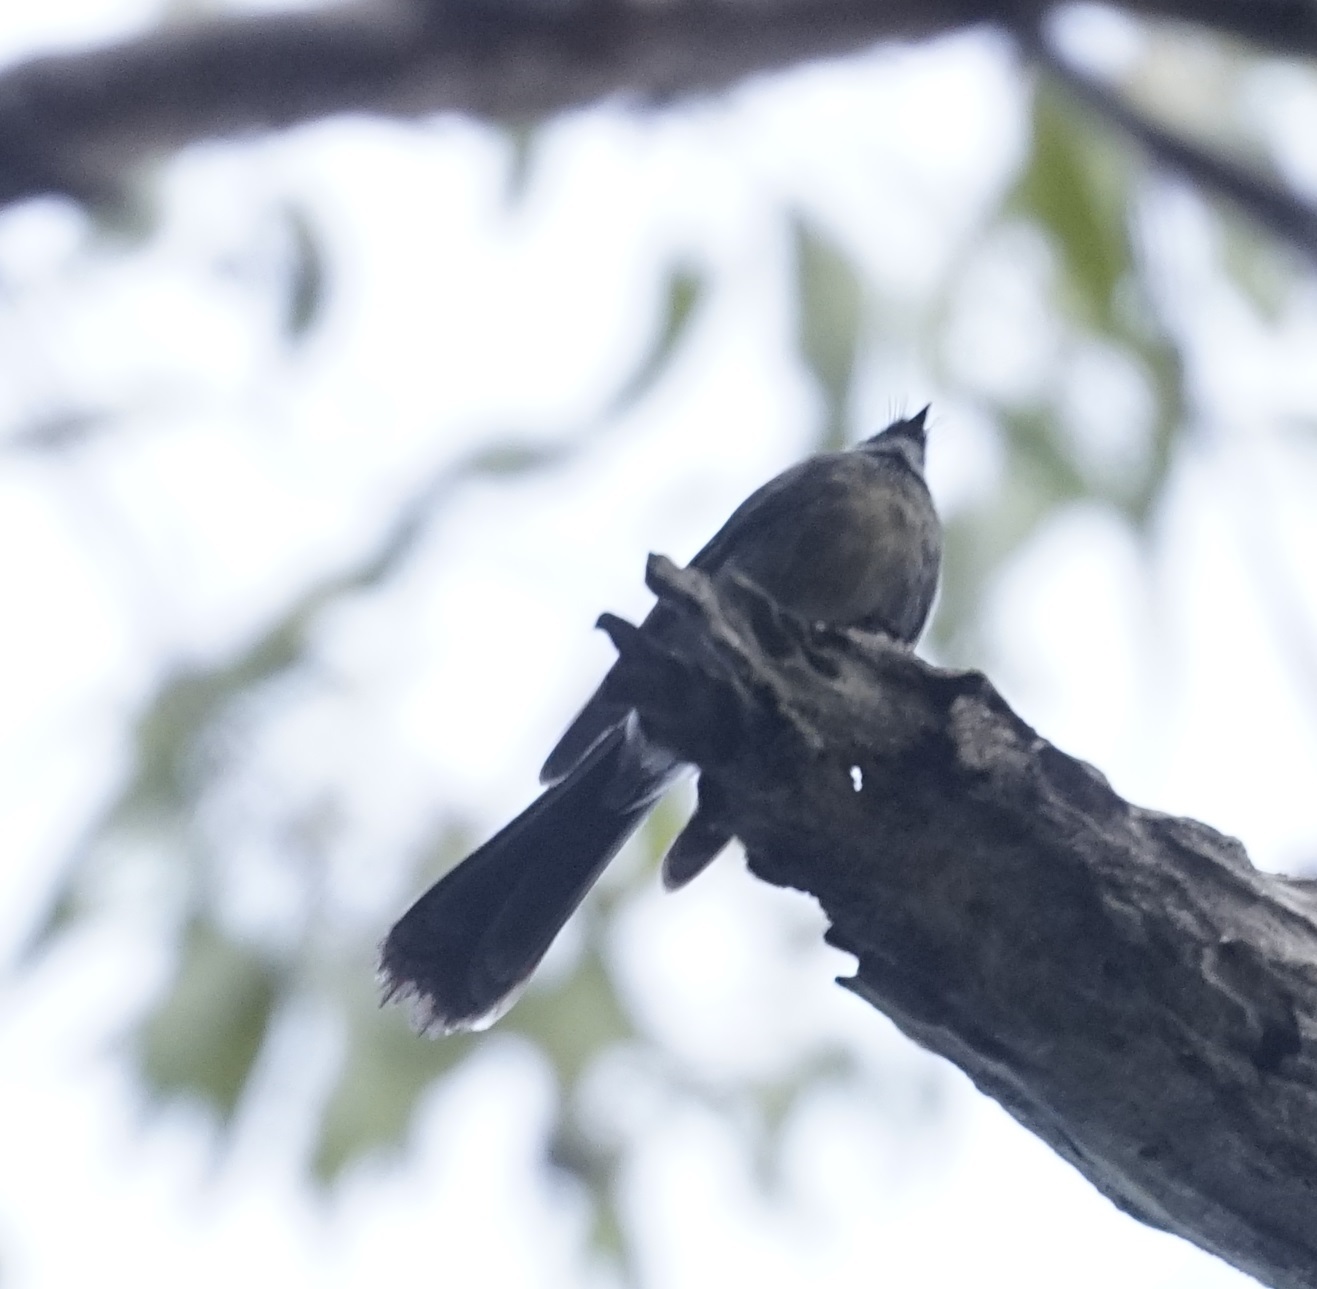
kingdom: Animalia
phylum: Chordata
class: Aves
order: Passeriformes
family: Rhipiduridae
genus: Rhipidura
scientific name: Rhipidura albiscapa
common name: Grey fantail
